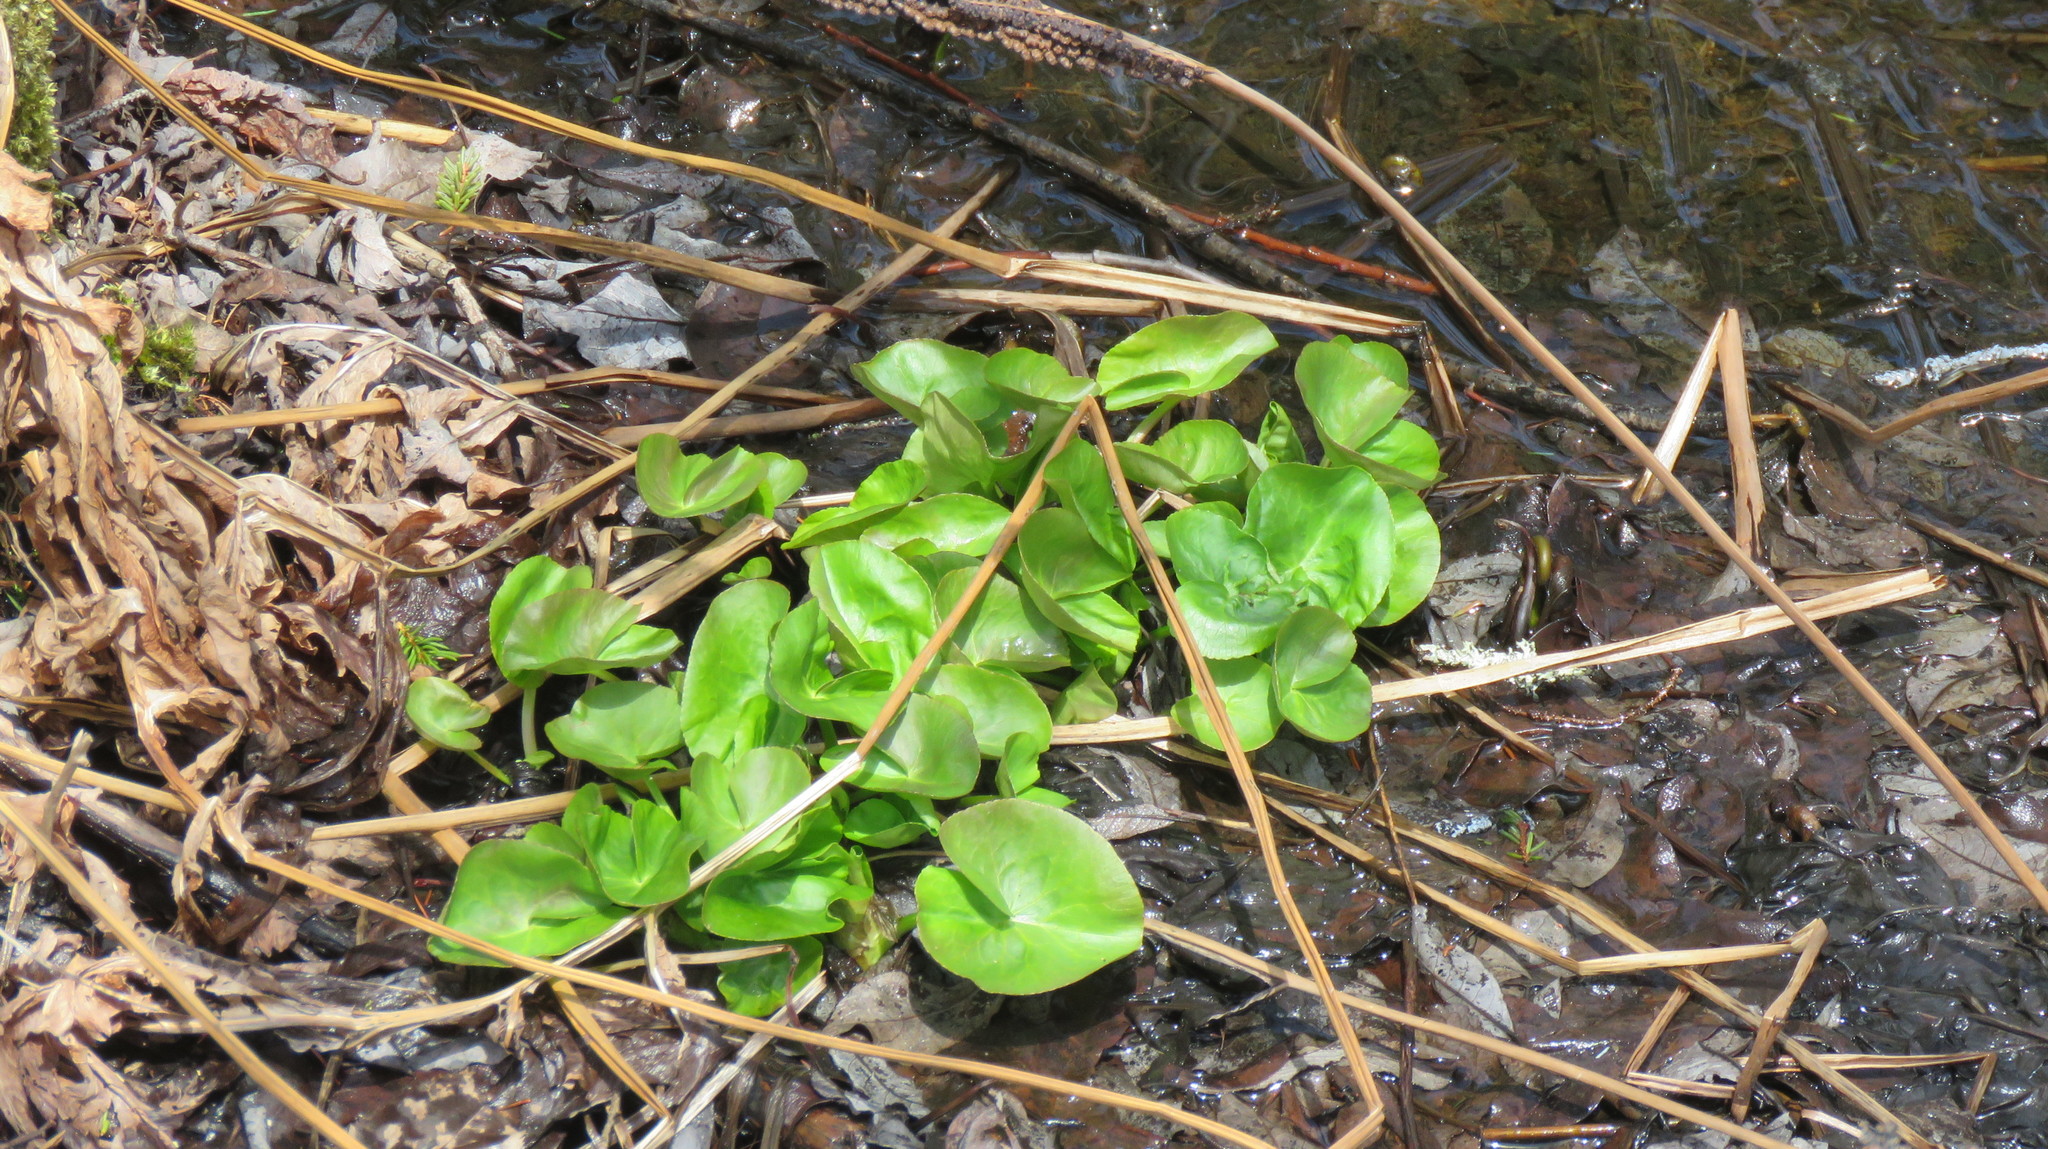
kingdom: Plantae
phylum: Tracheophyta
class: Magnoliopsida
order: Ranunculales
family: Ranunculaceae
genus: Caltha
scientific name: Caltha palustris
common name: Marsh marigold
